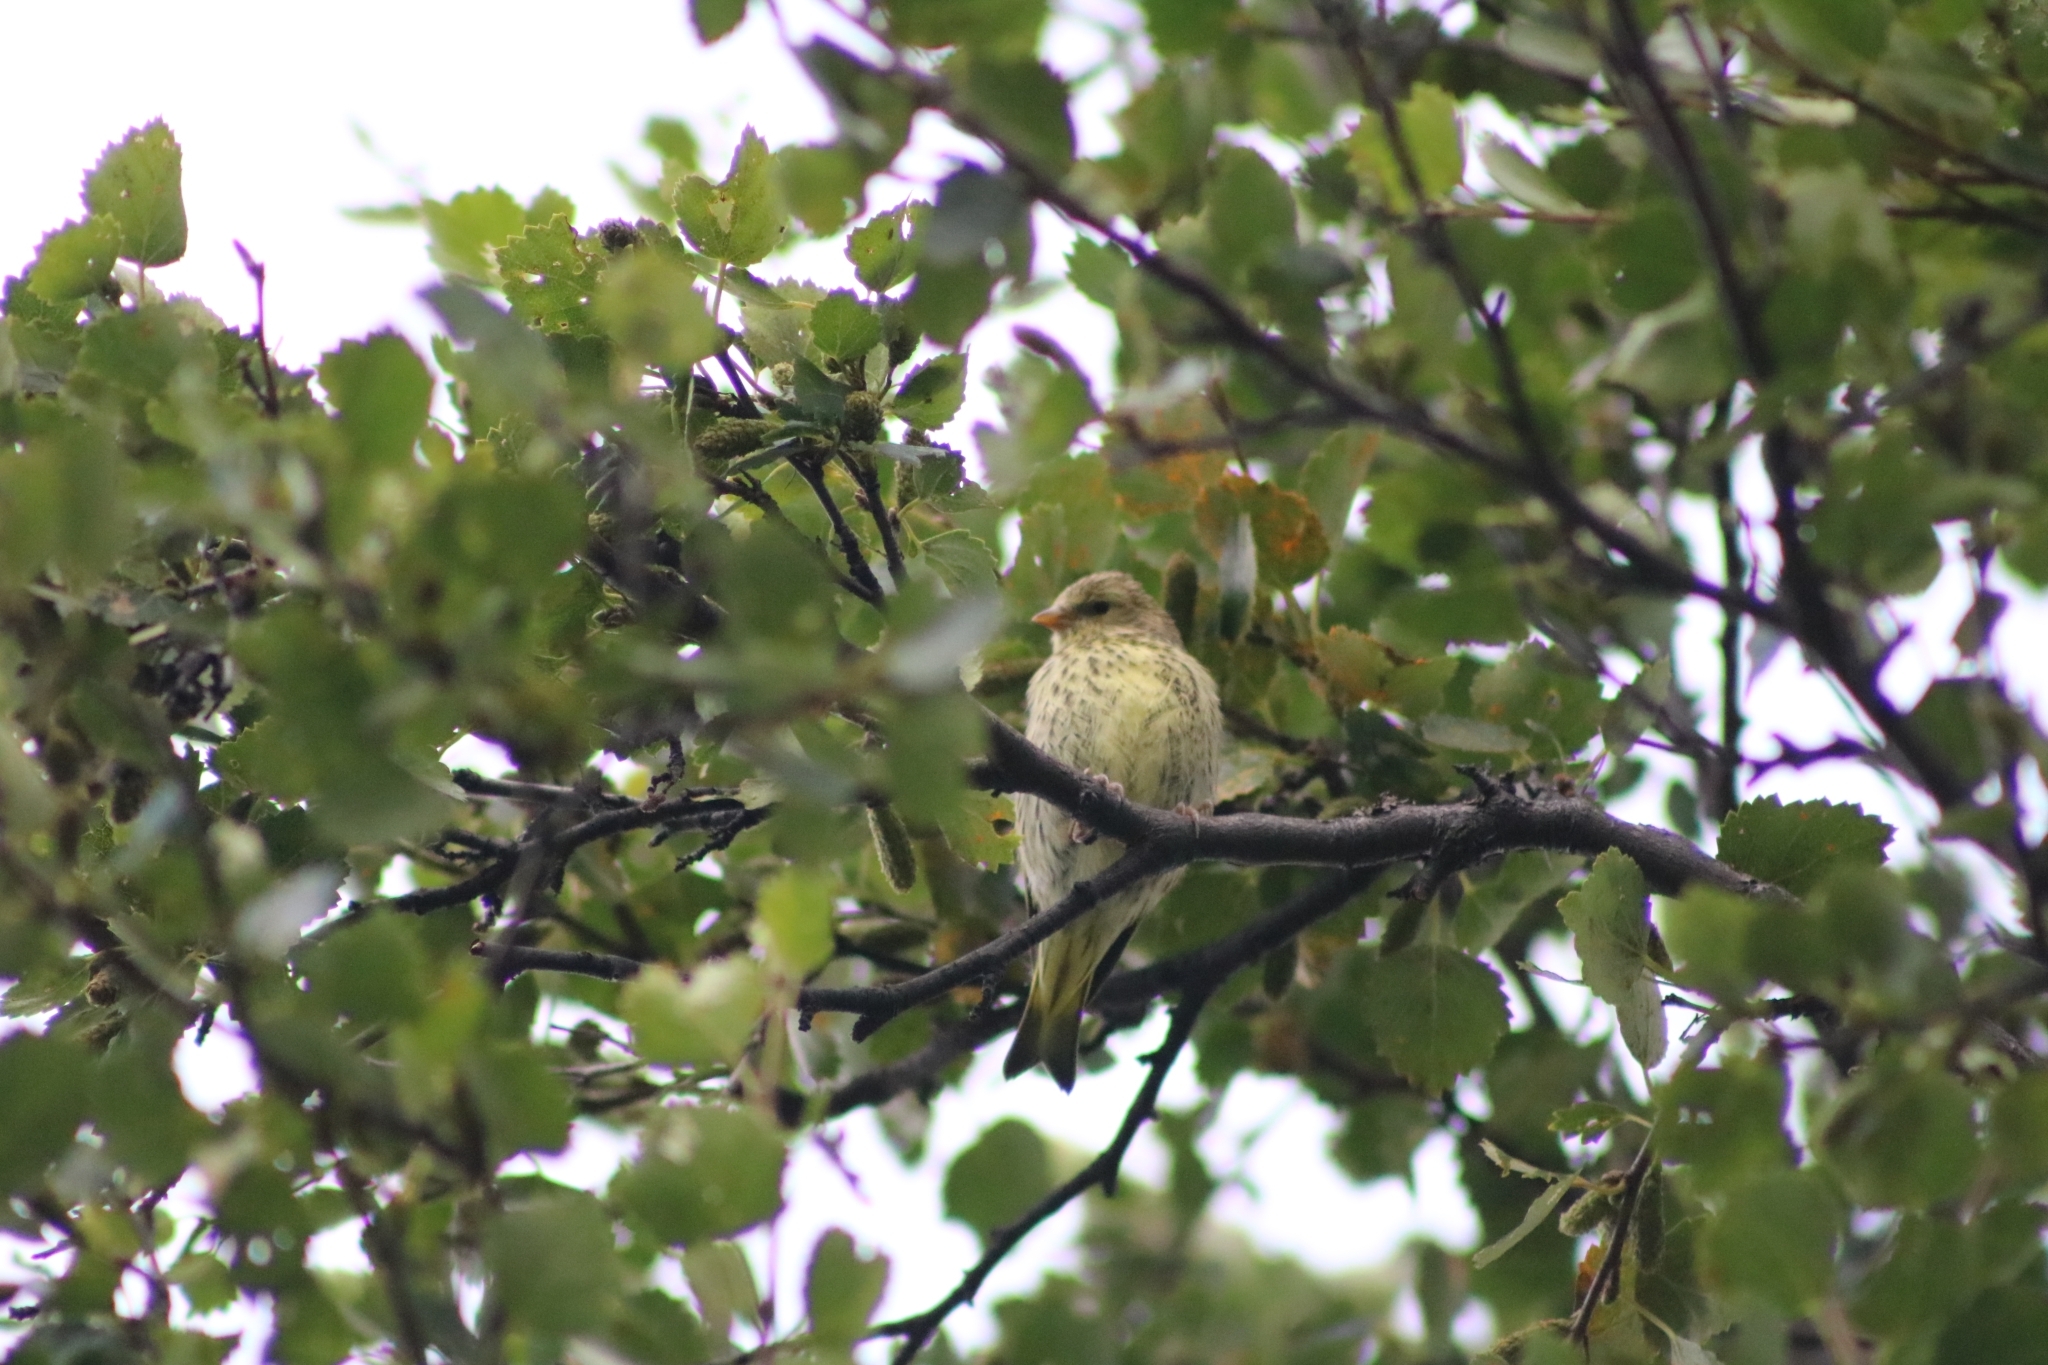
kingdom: Animalia
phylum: Chordata
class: Aves
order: Passeriformes
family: Fringillidae
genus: Spinus
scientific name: Spinus spinus
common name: Eurasian siskin
